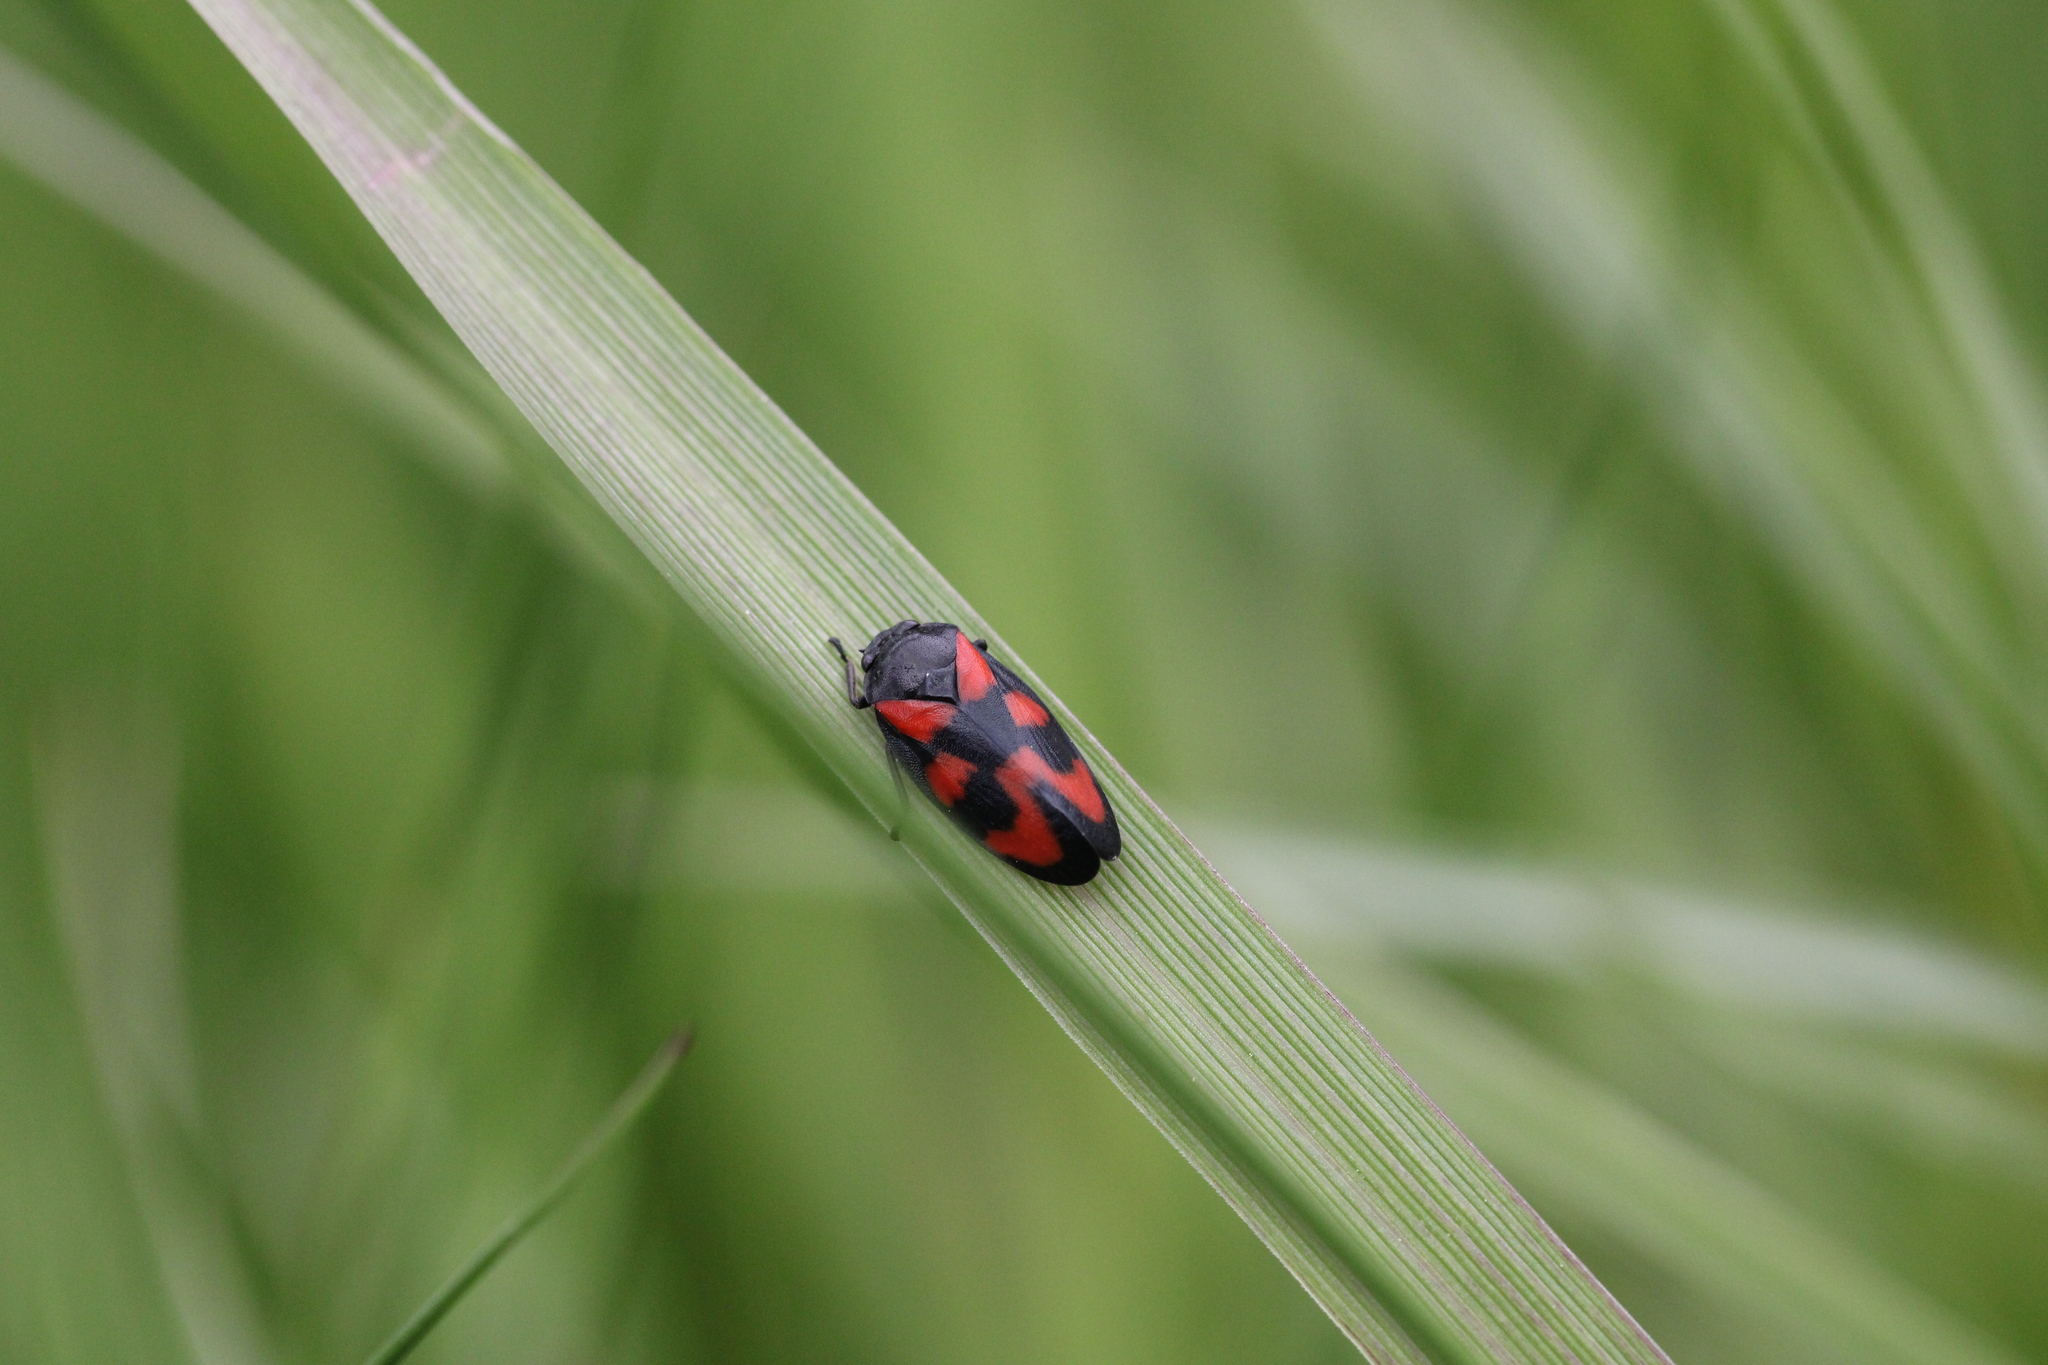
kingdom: Animalia
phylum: Arthropoda
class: Insecta
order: Hemiptera
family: Cercopidae
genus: Cercopis
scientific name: Cercopis vulnerata
